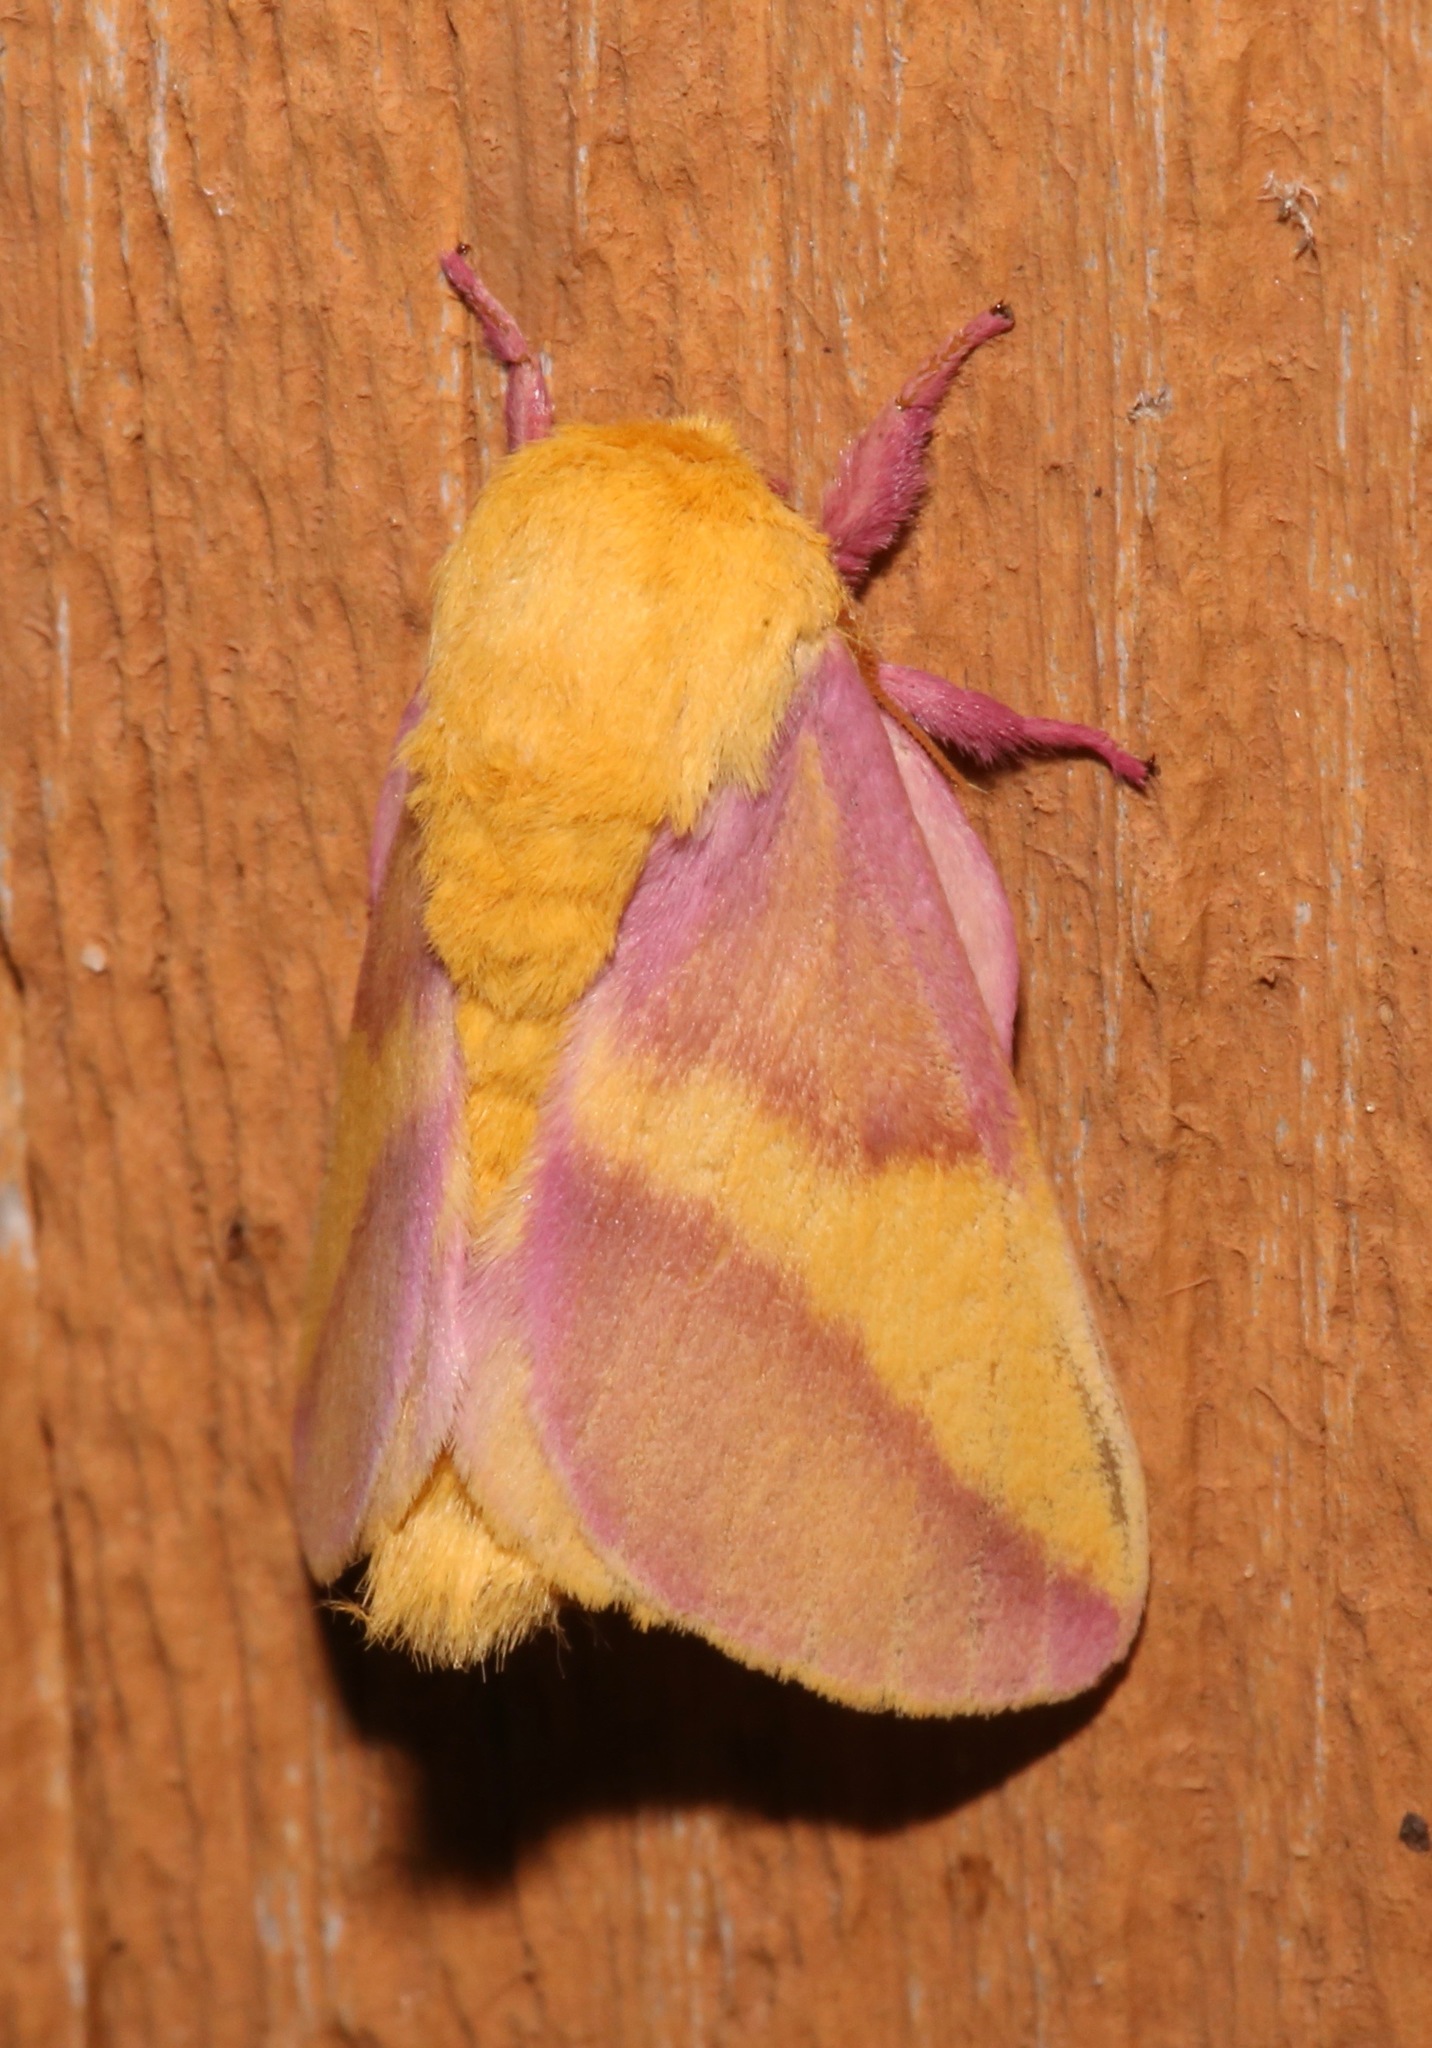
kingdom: Animalia
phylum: Arthropoda
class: Insecta
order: Lepidoptera
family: Saturniidae
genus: Dryocampa
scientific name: Dryocampa rubicunda
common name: Rosy maple moth
